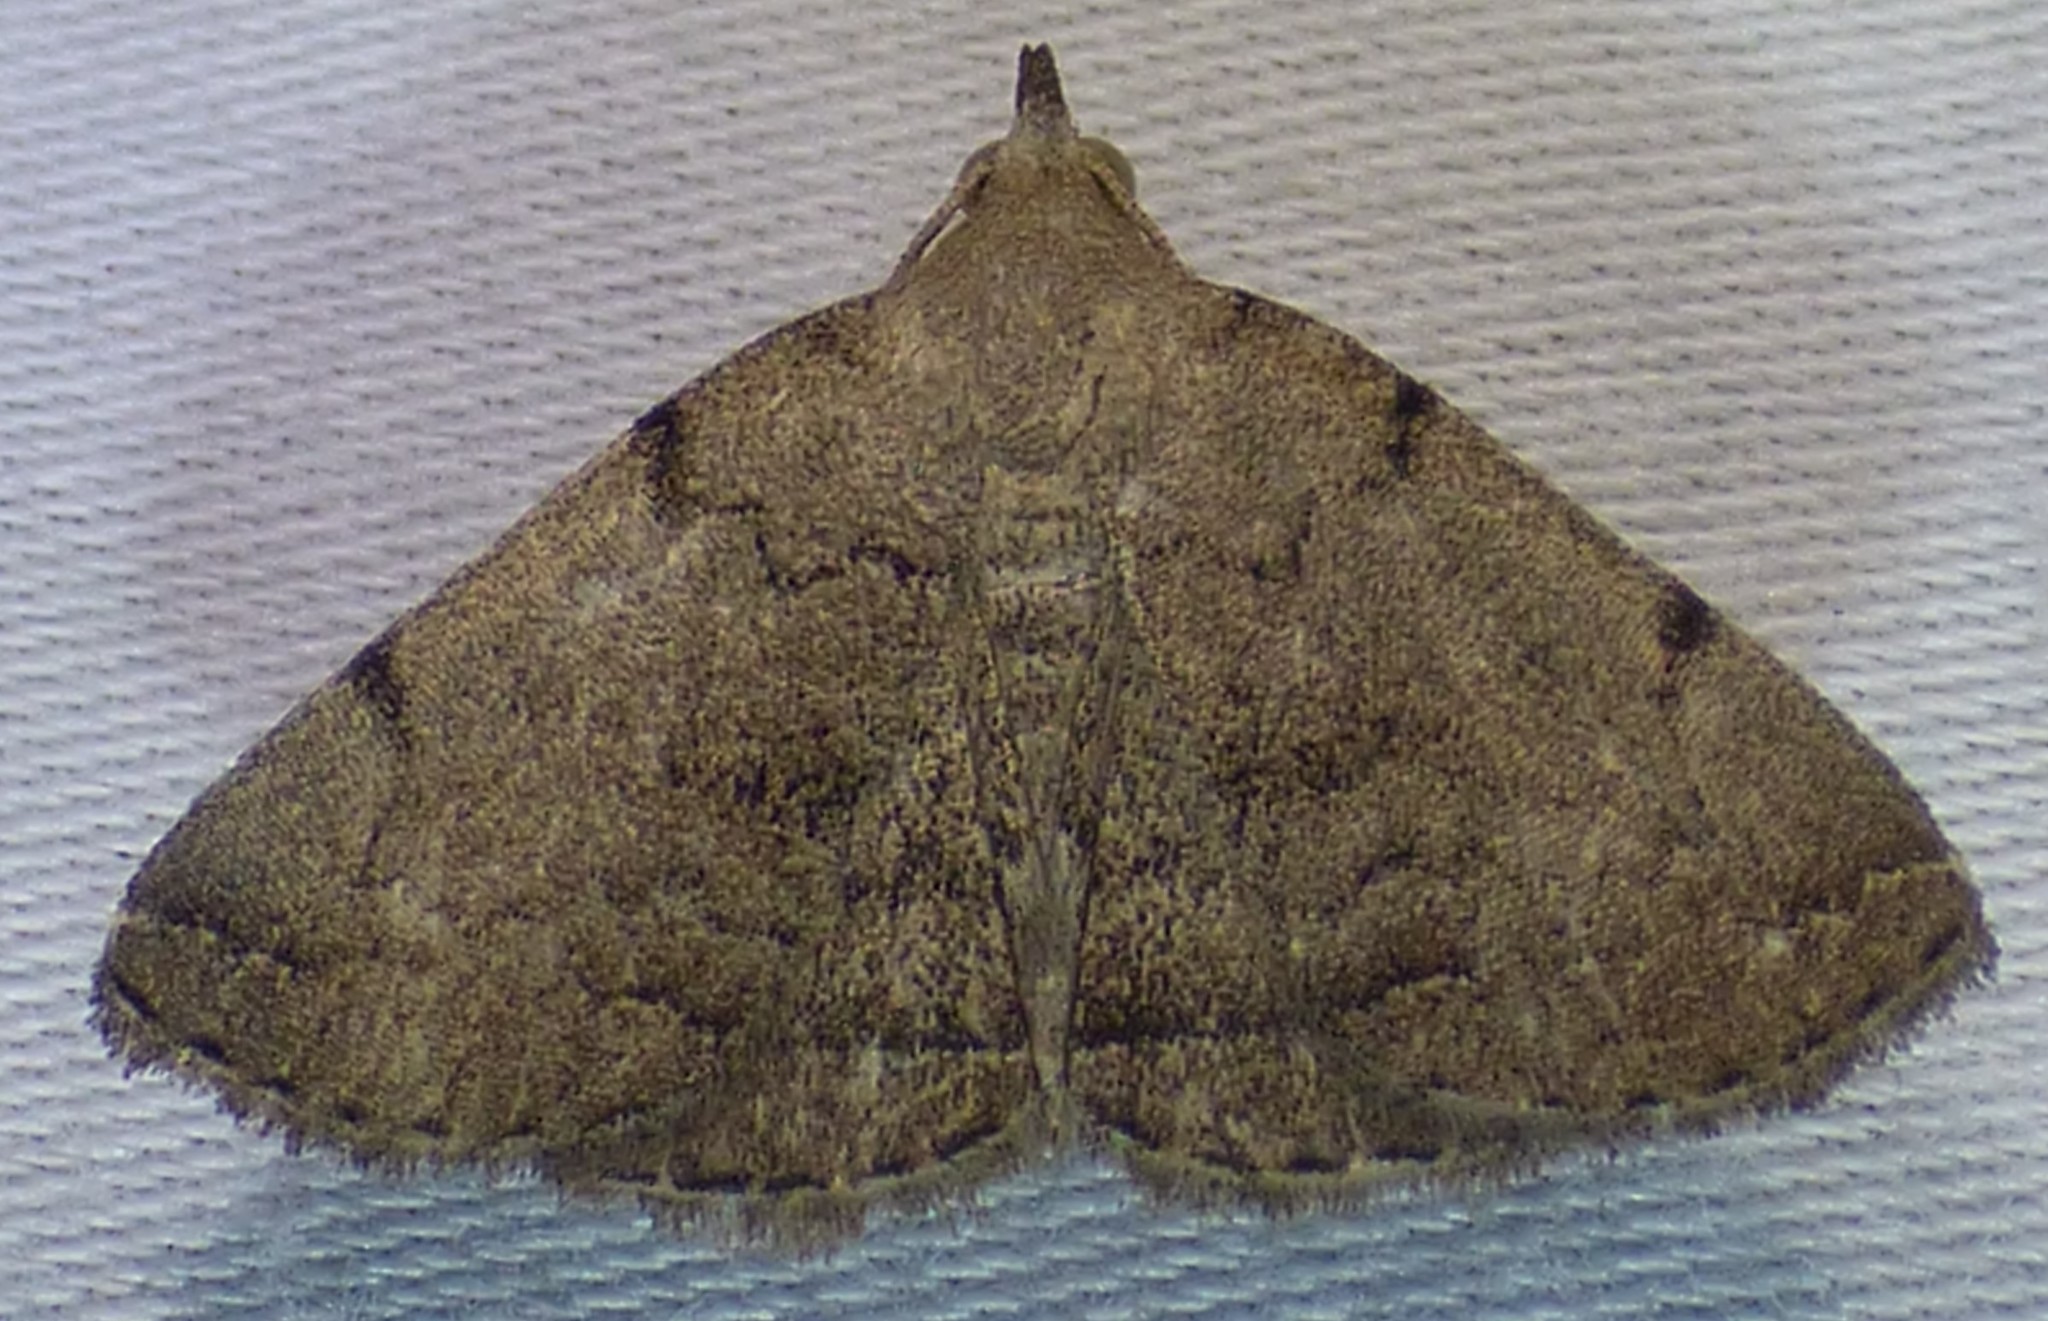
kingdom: Animalia
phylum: Arthropoda
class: Insecta
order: Lepidoptera
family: Erebidae
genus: Zanclognatha
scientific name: Zanclognatha theralis
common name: Flagged fan-foot
